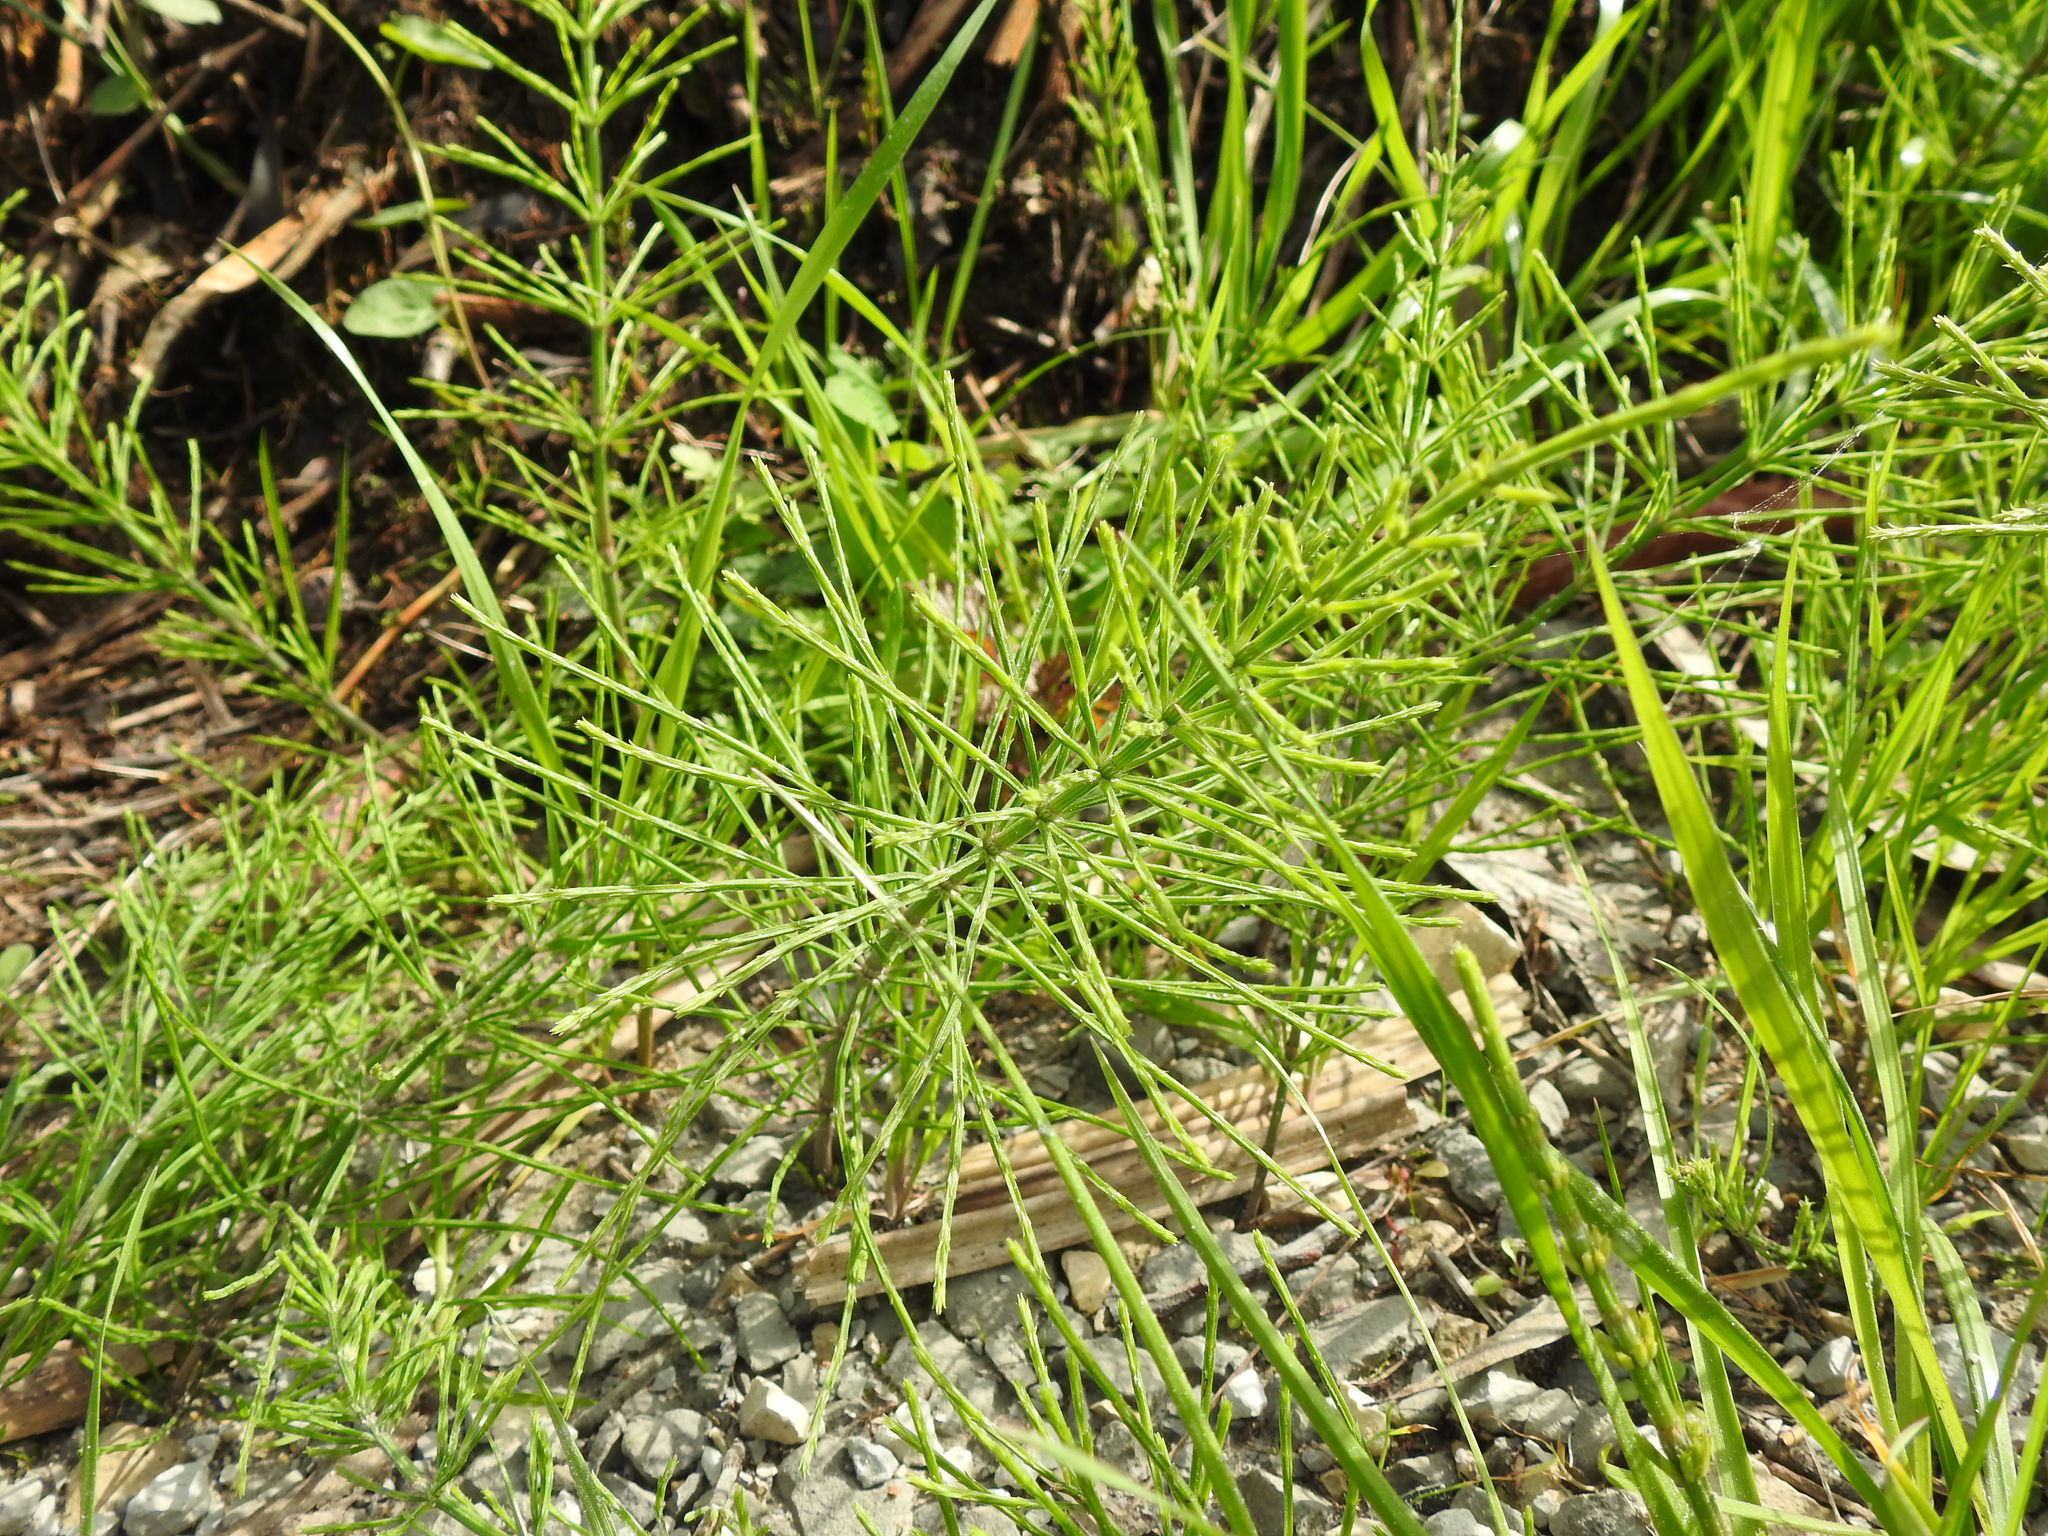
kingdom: Plantae
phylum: Tracheophyta
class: Polypodiopsida
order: Equisetales
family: Equisetaceae
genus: Equisetum
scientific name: Equisetum arvense
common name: Field horsetail
